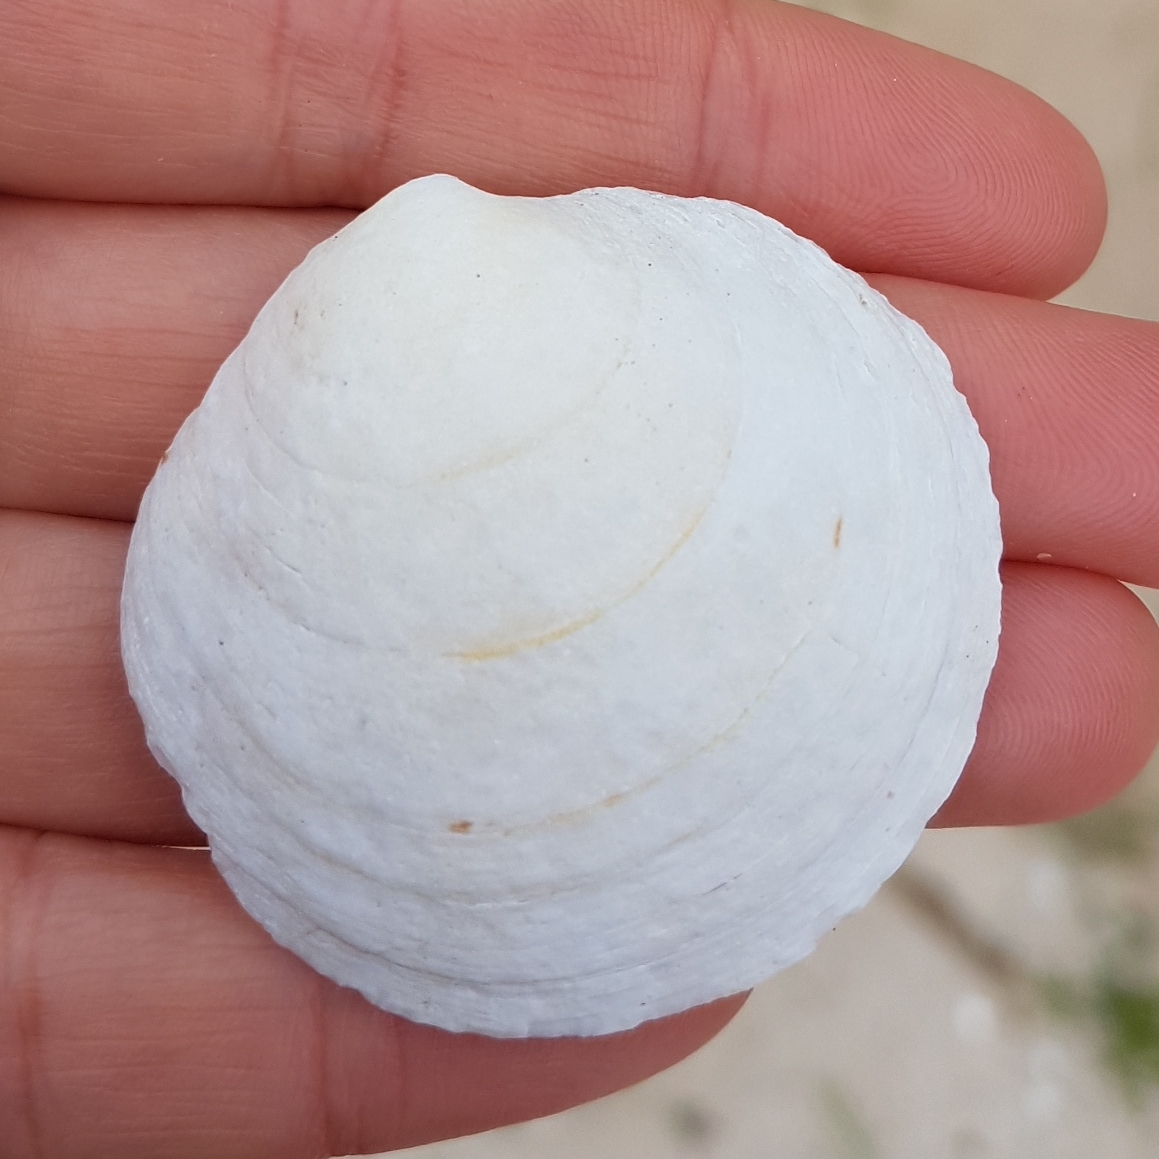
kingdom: Animalia
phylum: Mollusca
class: Bivalvia
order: Venerida
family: Veneridae
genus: Dosinia
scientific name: Dosinia exoleta
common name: Rayed artemis
